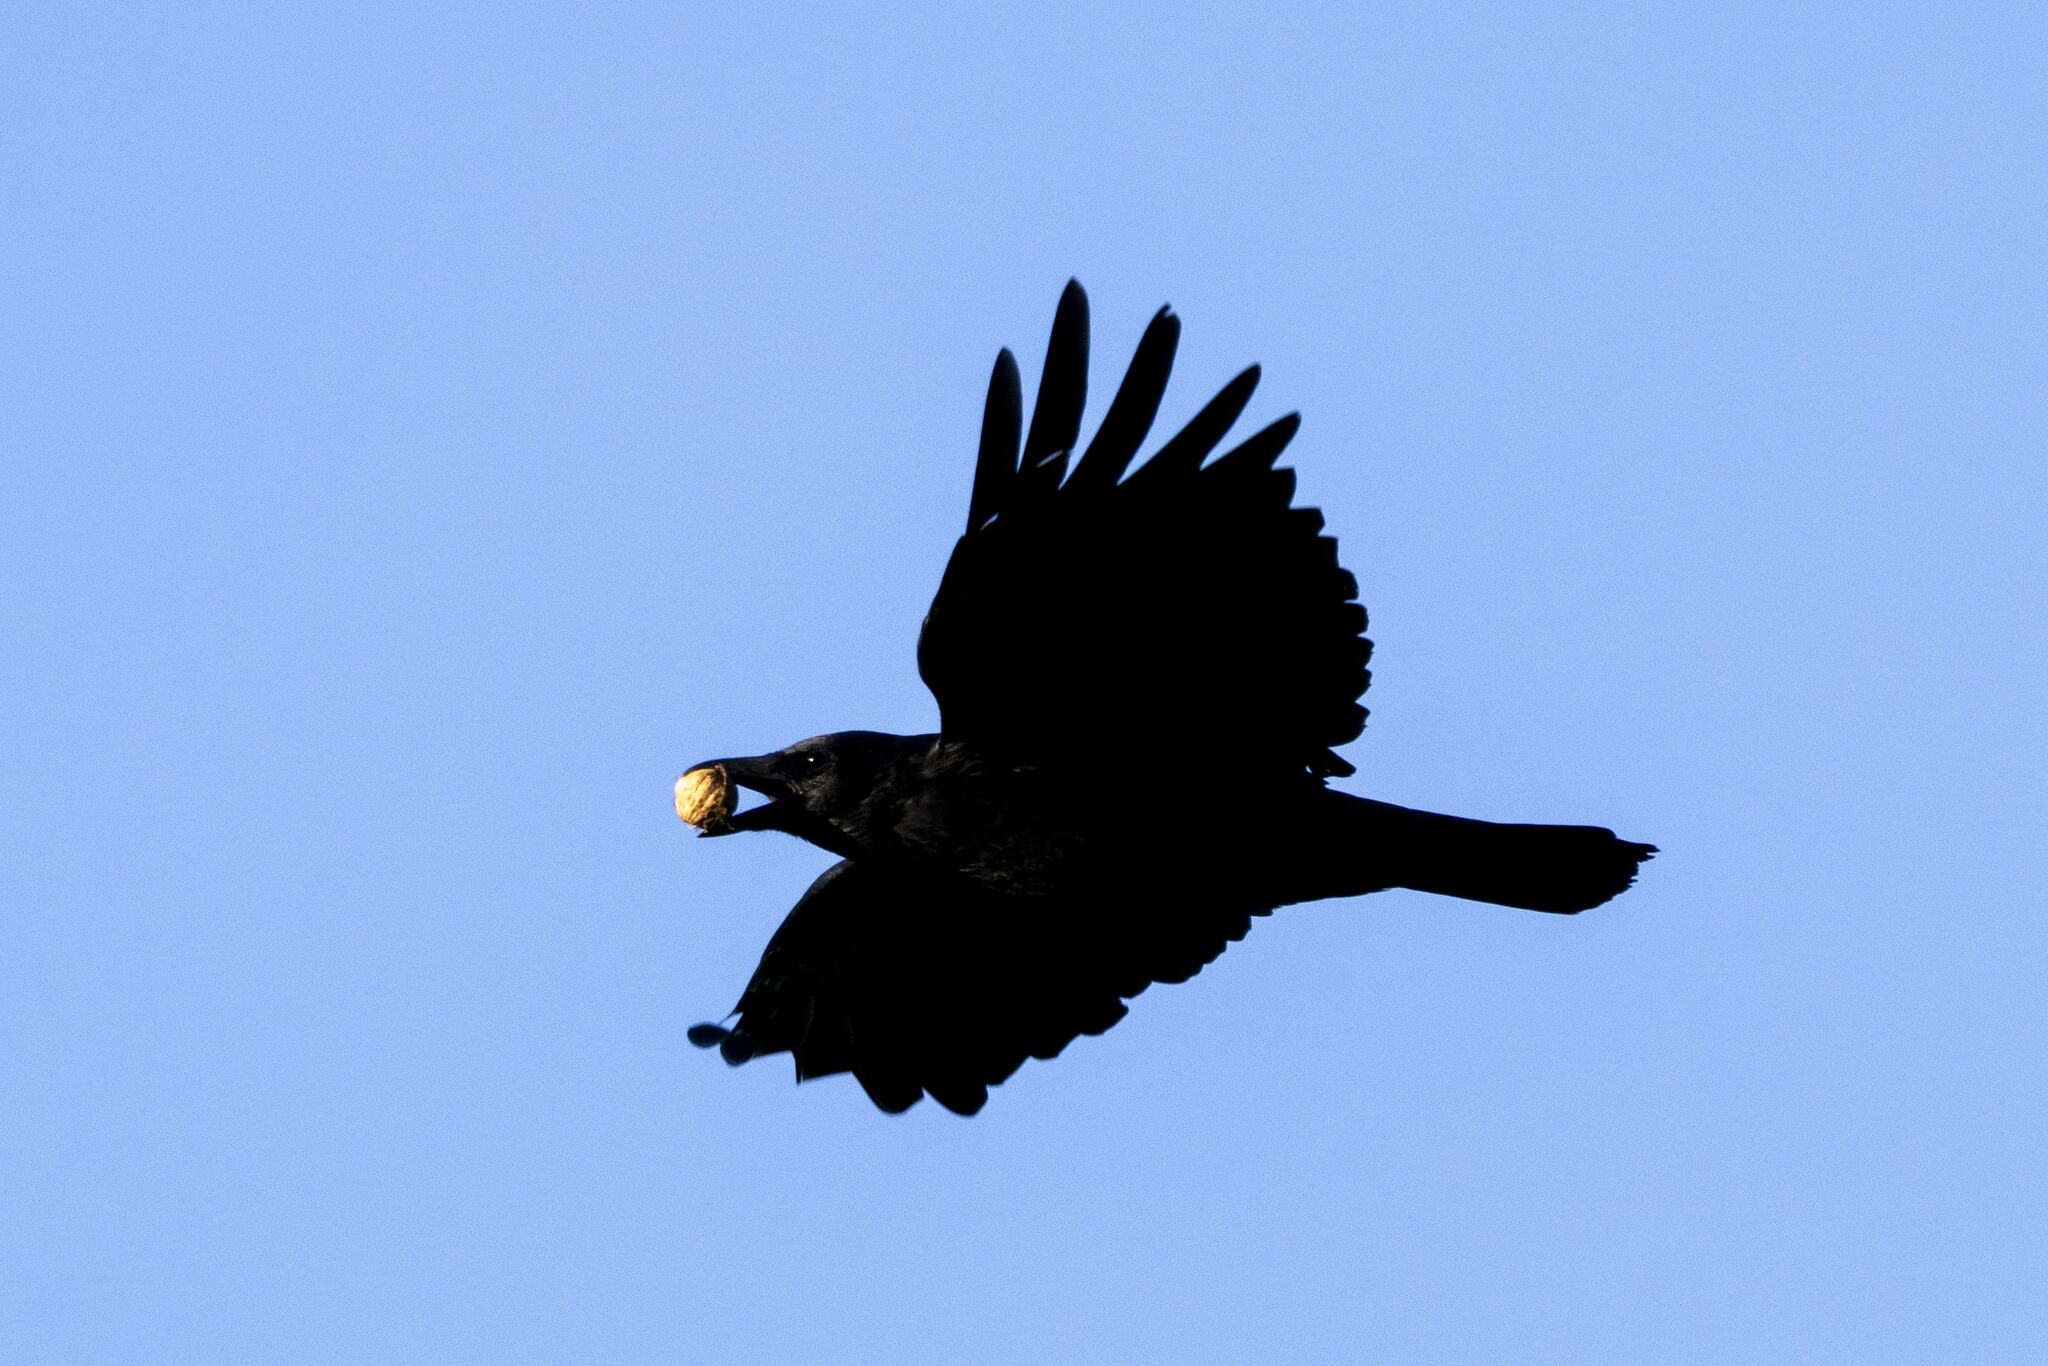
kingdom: Animalia
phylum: Chordata
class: Aves
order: Passeriformes
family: Corvidae
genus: Corvus
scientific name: Corvus corone
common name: Carrion crow
